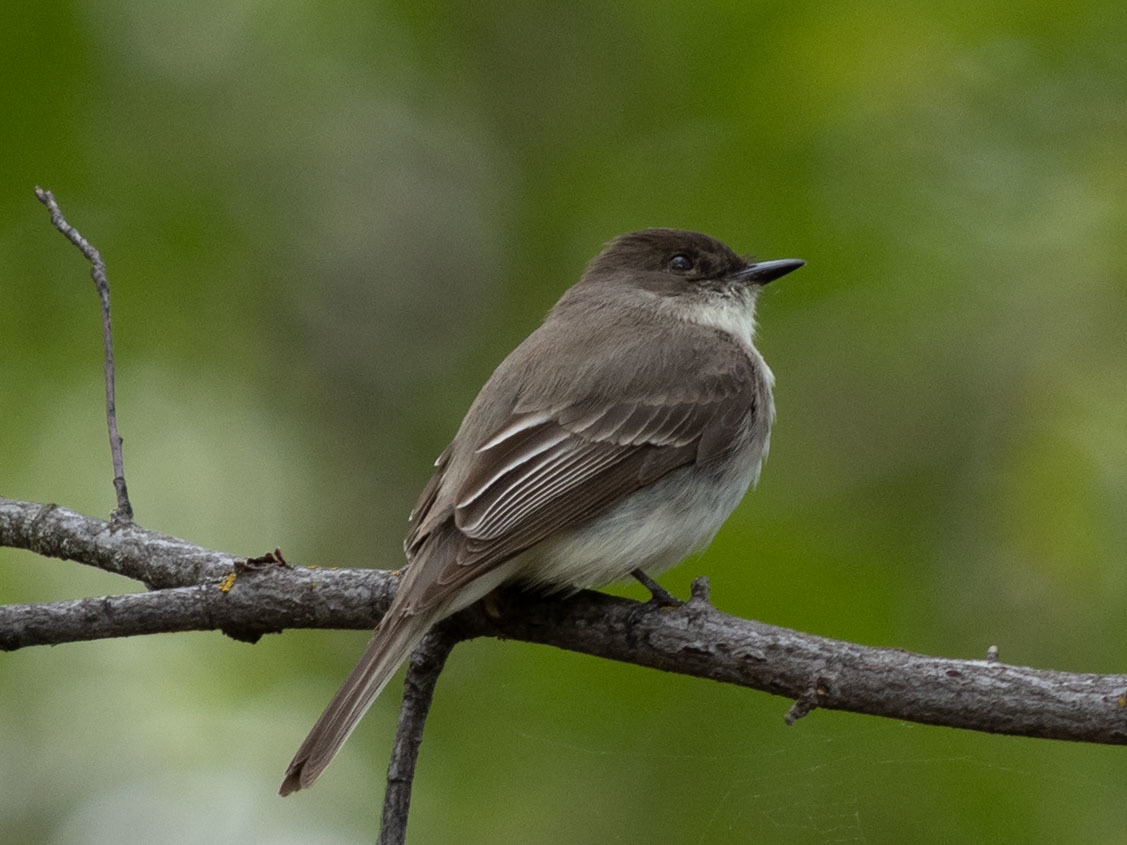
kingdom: Animalia
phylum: Chordata
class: Aves
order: Passeriformes
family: Tyrannidae
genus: Sayornis
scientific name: Sayornis phoebe
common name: Eastern phoebe
